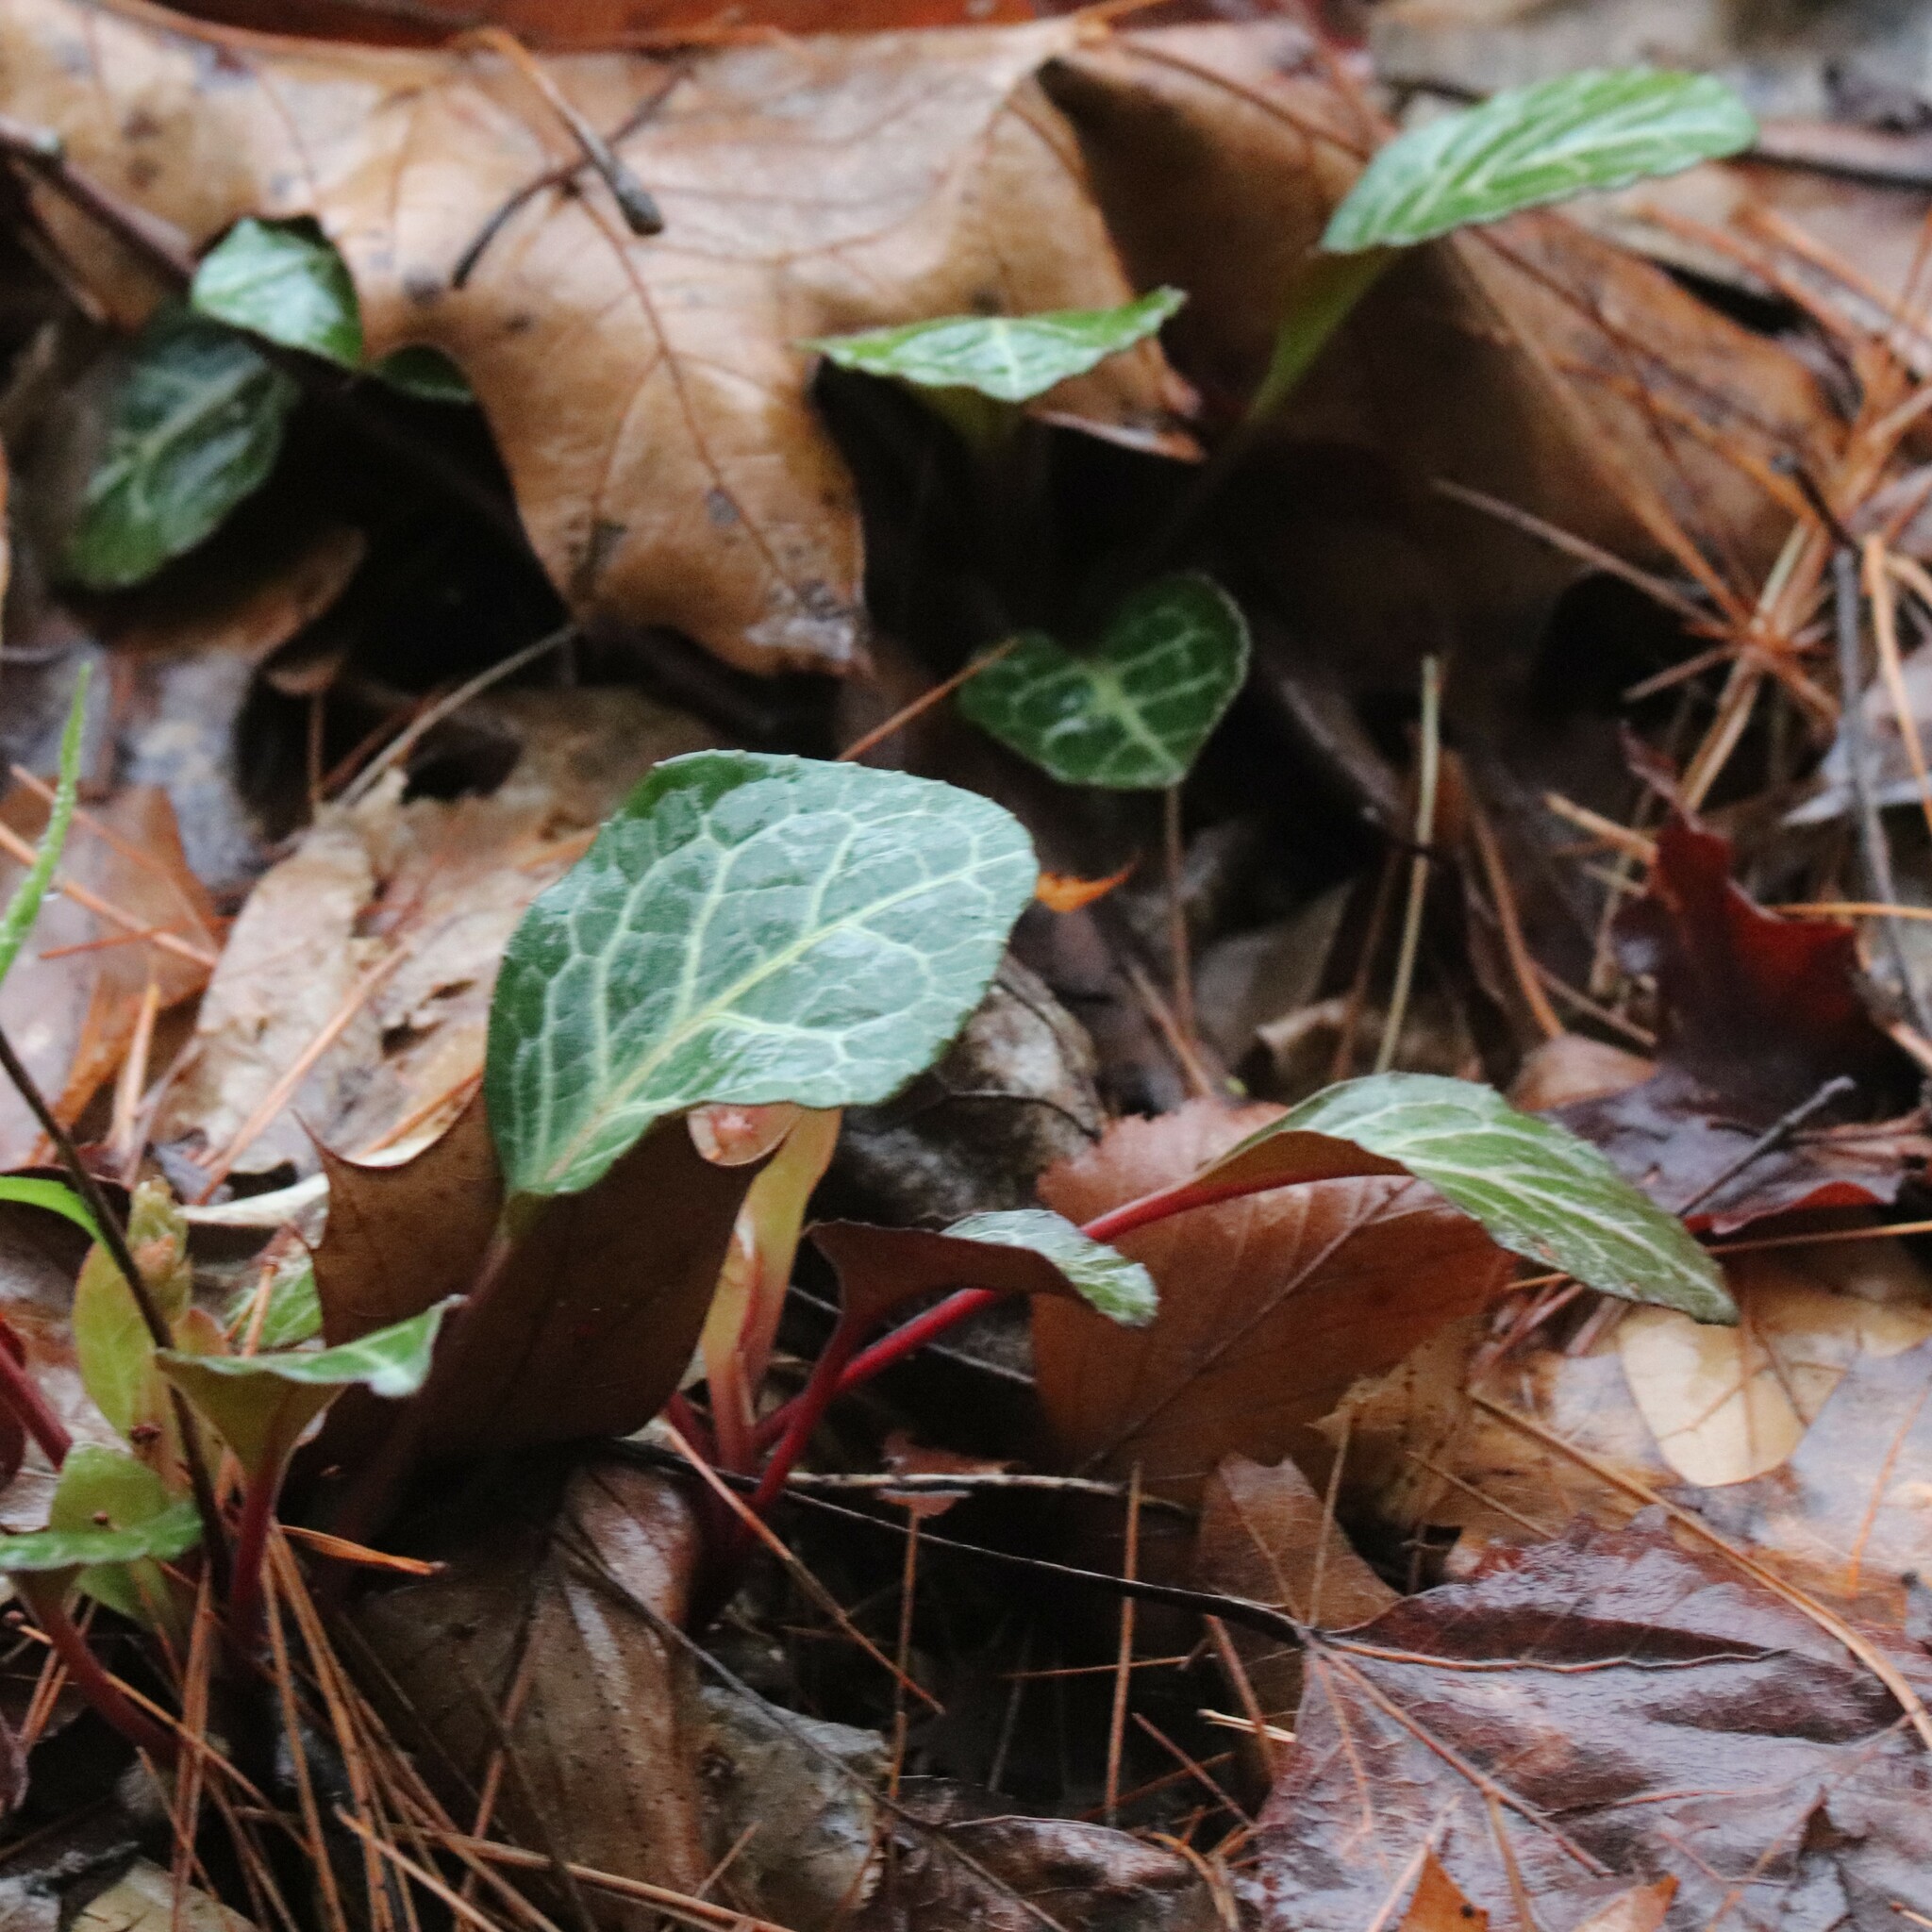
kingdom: Plantae
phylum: Tracheophyta
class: Magnoliopsida
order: Ericales
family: Ericaceae
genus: Pyrola
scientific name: Pyrola americana
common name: American wintergreen
